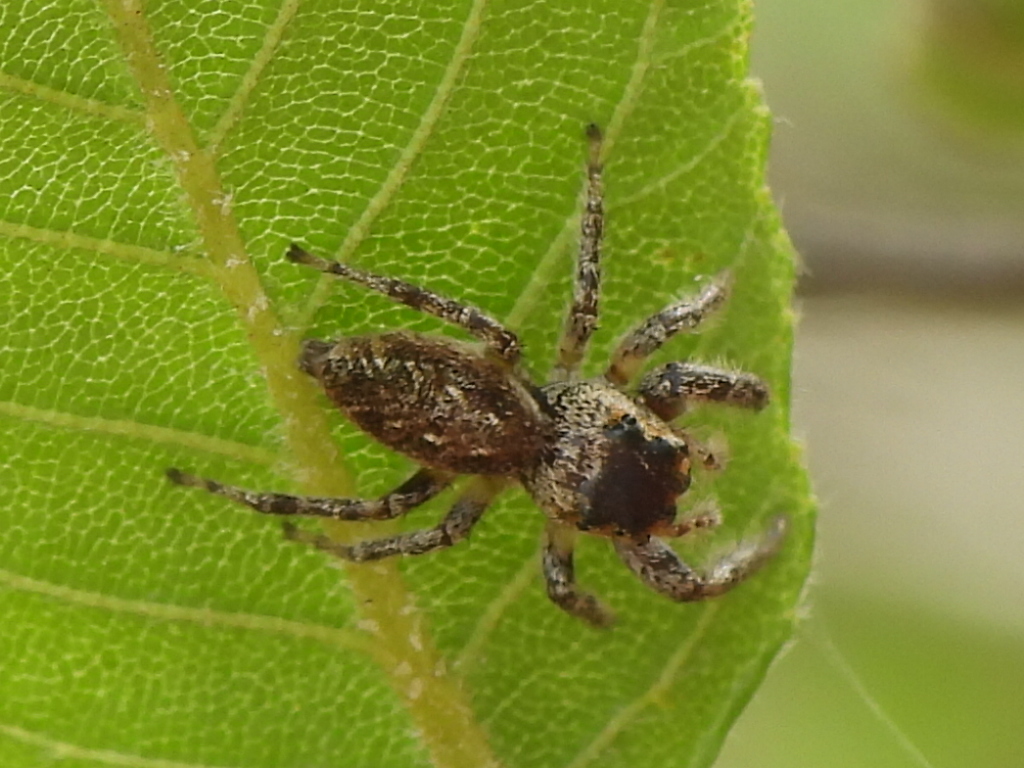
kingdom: Animalia
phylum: Arthropoda
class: Arachnida
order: Araneae
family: Salticidae
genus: Eris
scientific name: Eris militaris
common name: Bronze jumper
